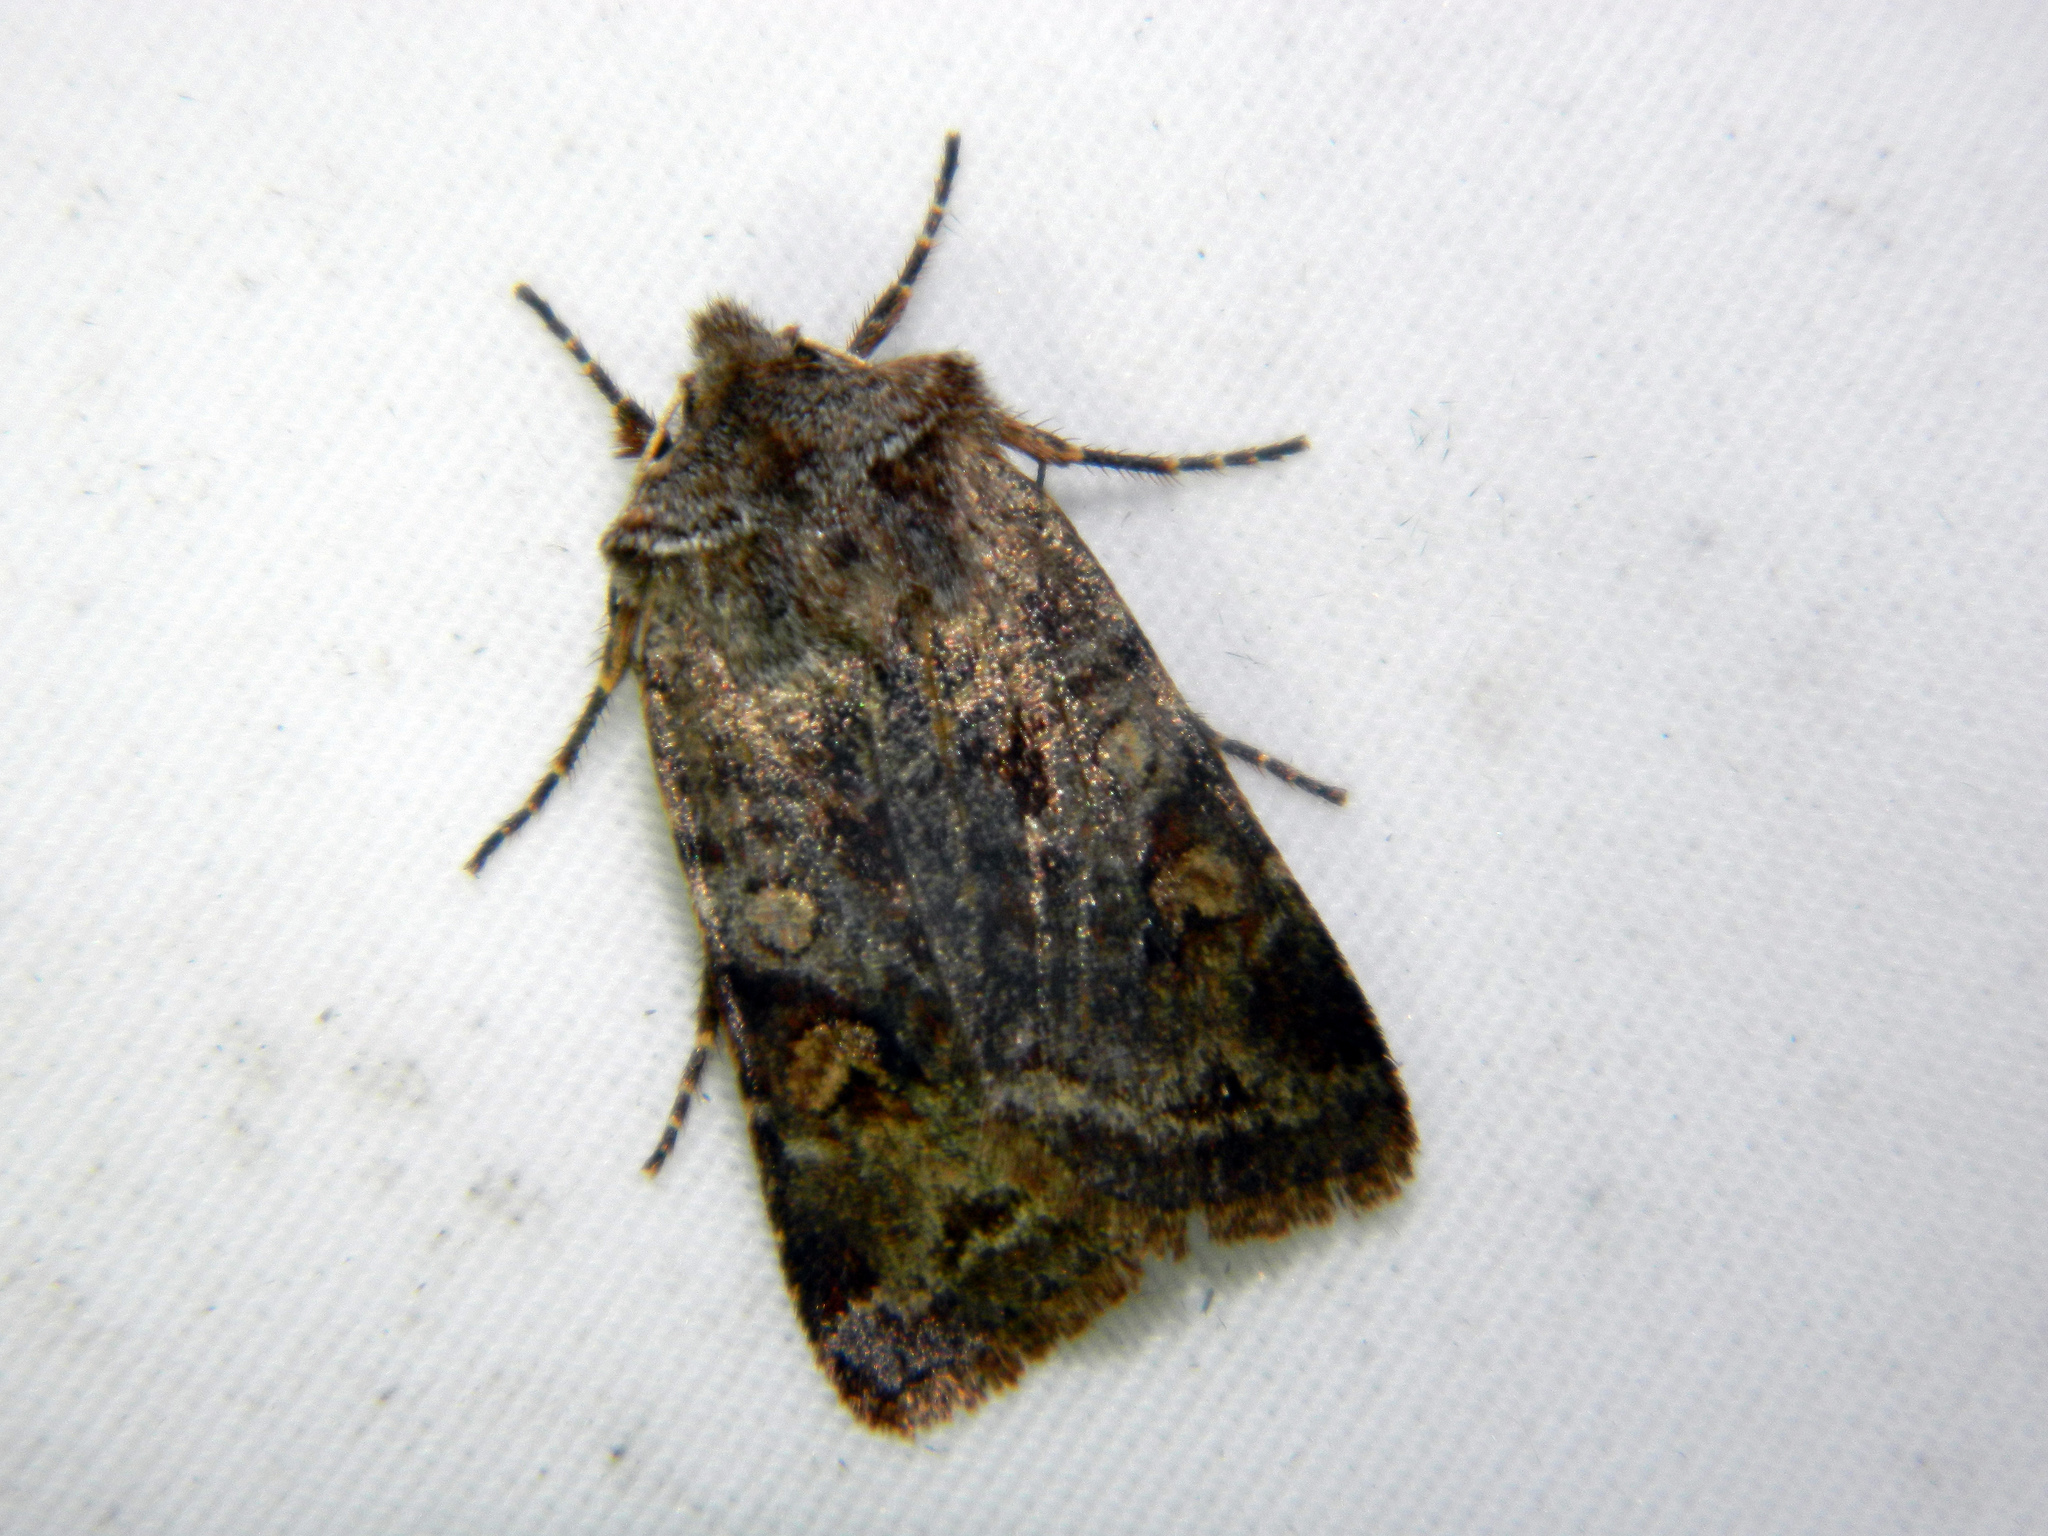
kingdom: Animalia
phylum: Arthropoda
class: Insecta
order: Lepidoptera
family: Noctuidae
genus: Cerastis
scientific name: Cerastis salicarum
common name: Willow dart
